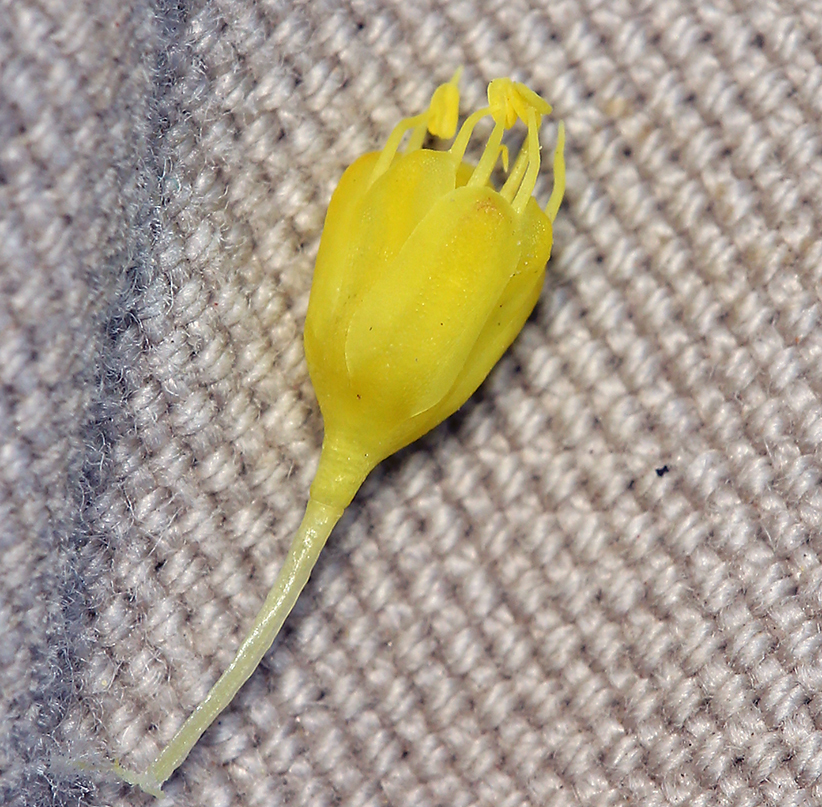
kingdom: Plantae
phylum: Tracheophyta
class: Magnoliopsida
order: Caryophyllales
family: Polygonaceae
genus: Eriogonum
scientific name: Eriogonum congdonii
